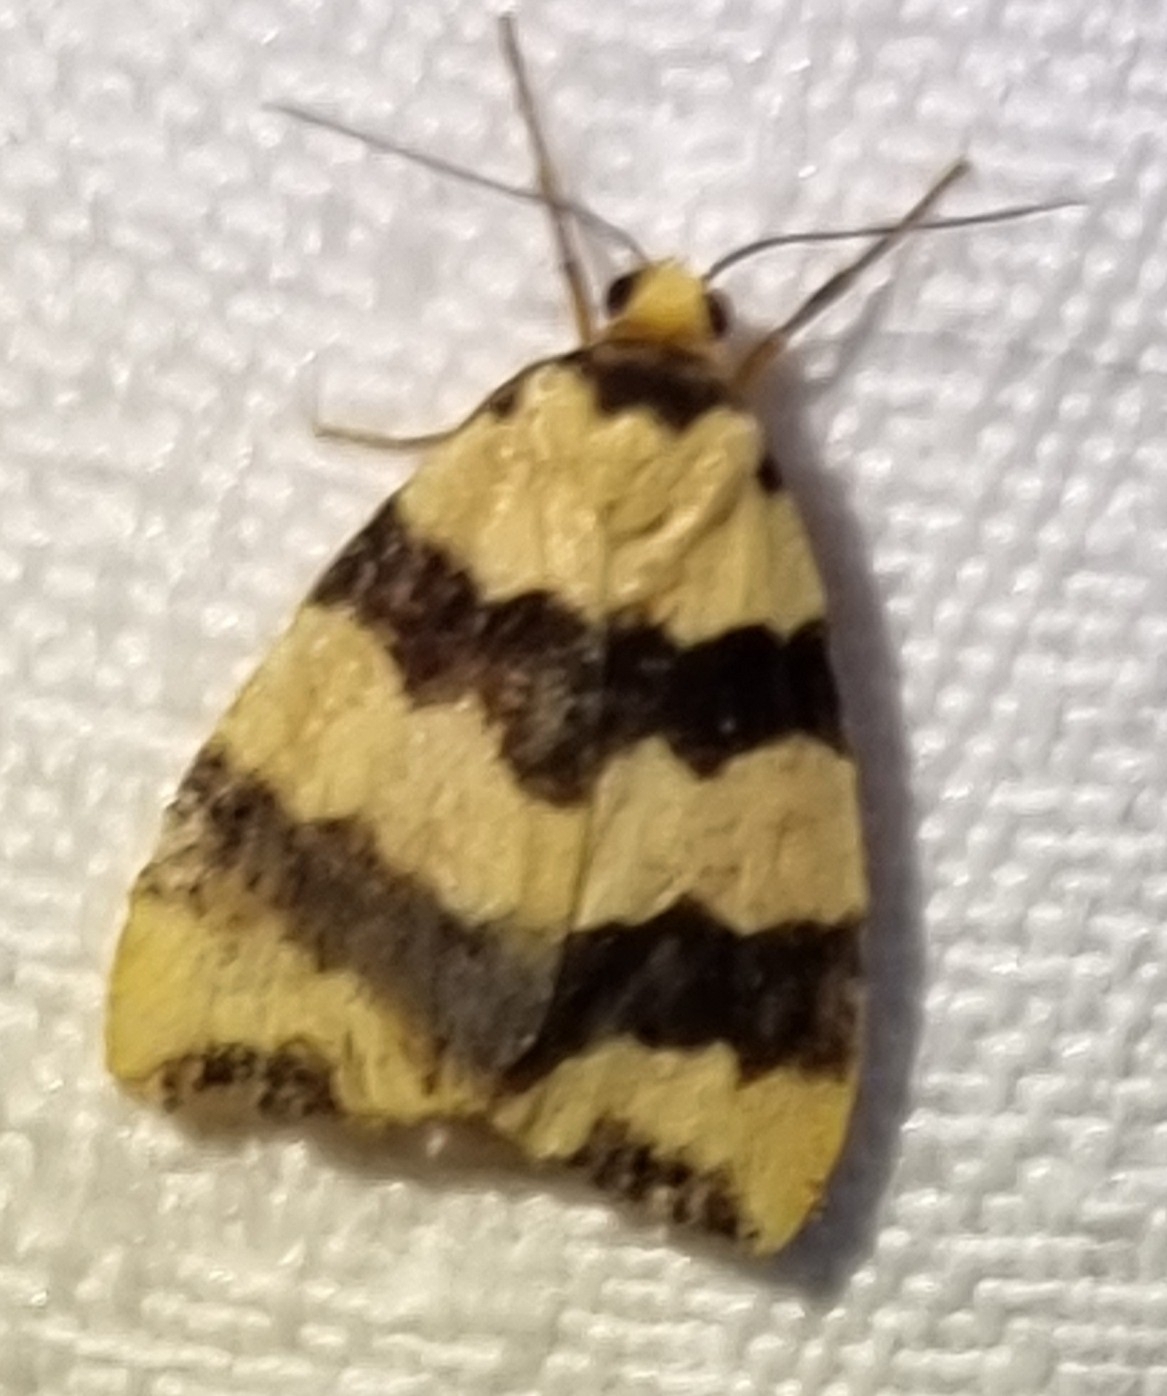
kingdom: Animalia
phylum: Arthropoda
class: Insecta
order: Lepidoptera
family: Erebidae
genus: Termessa
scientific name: Termessa laeta
